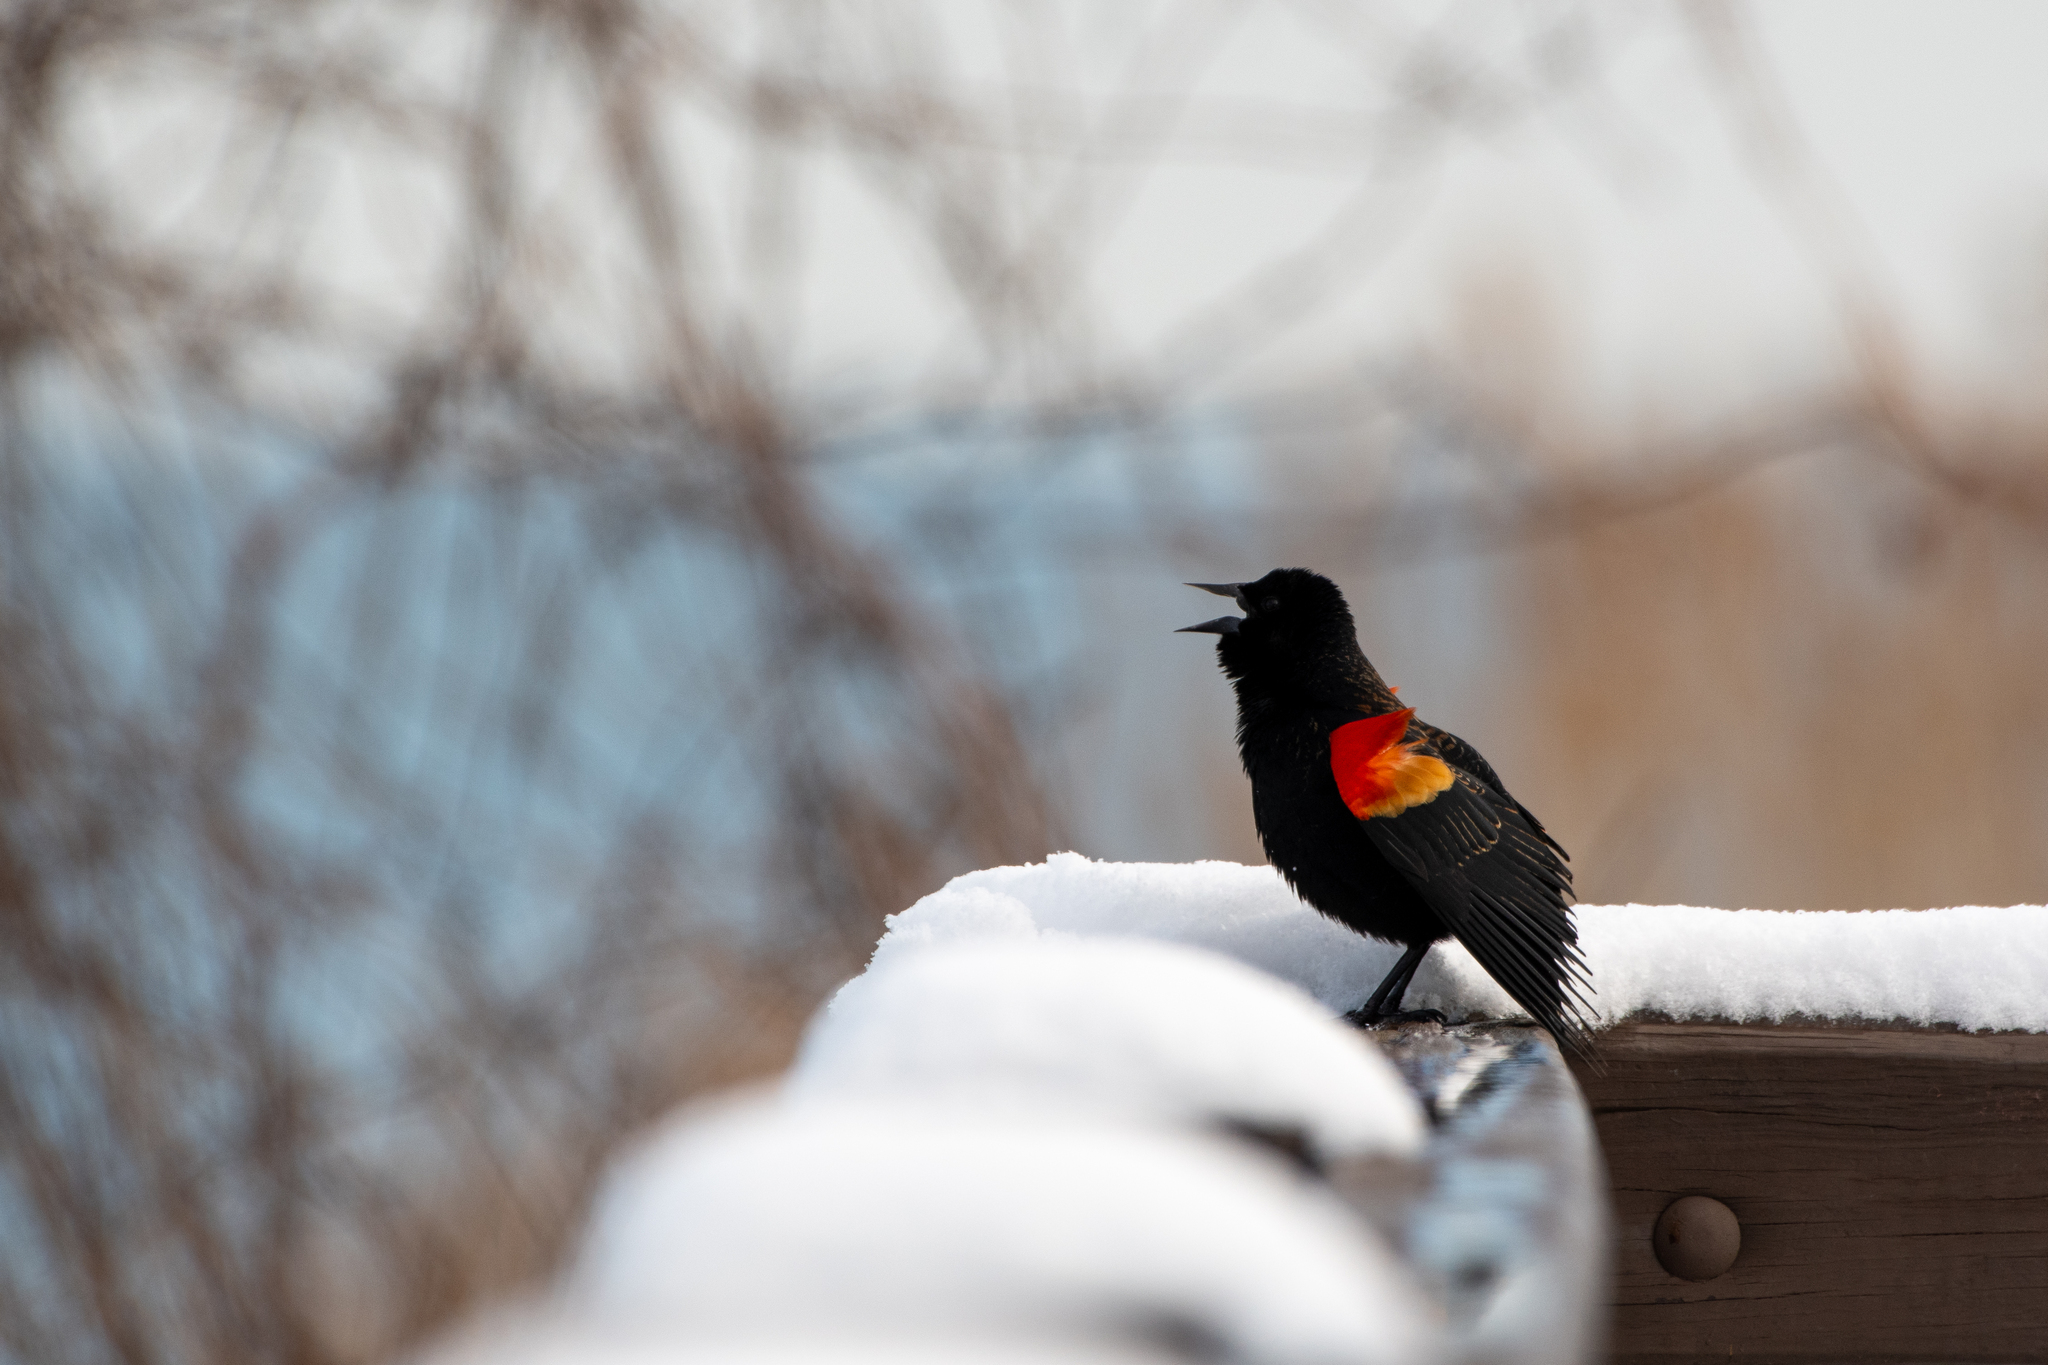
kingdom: Animalia
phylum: Chordata
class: Aves
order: Passeriformes
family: Icteridae
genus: Agelaius
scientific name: Agelaius phoeniceus
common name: Red-winged blackbird
